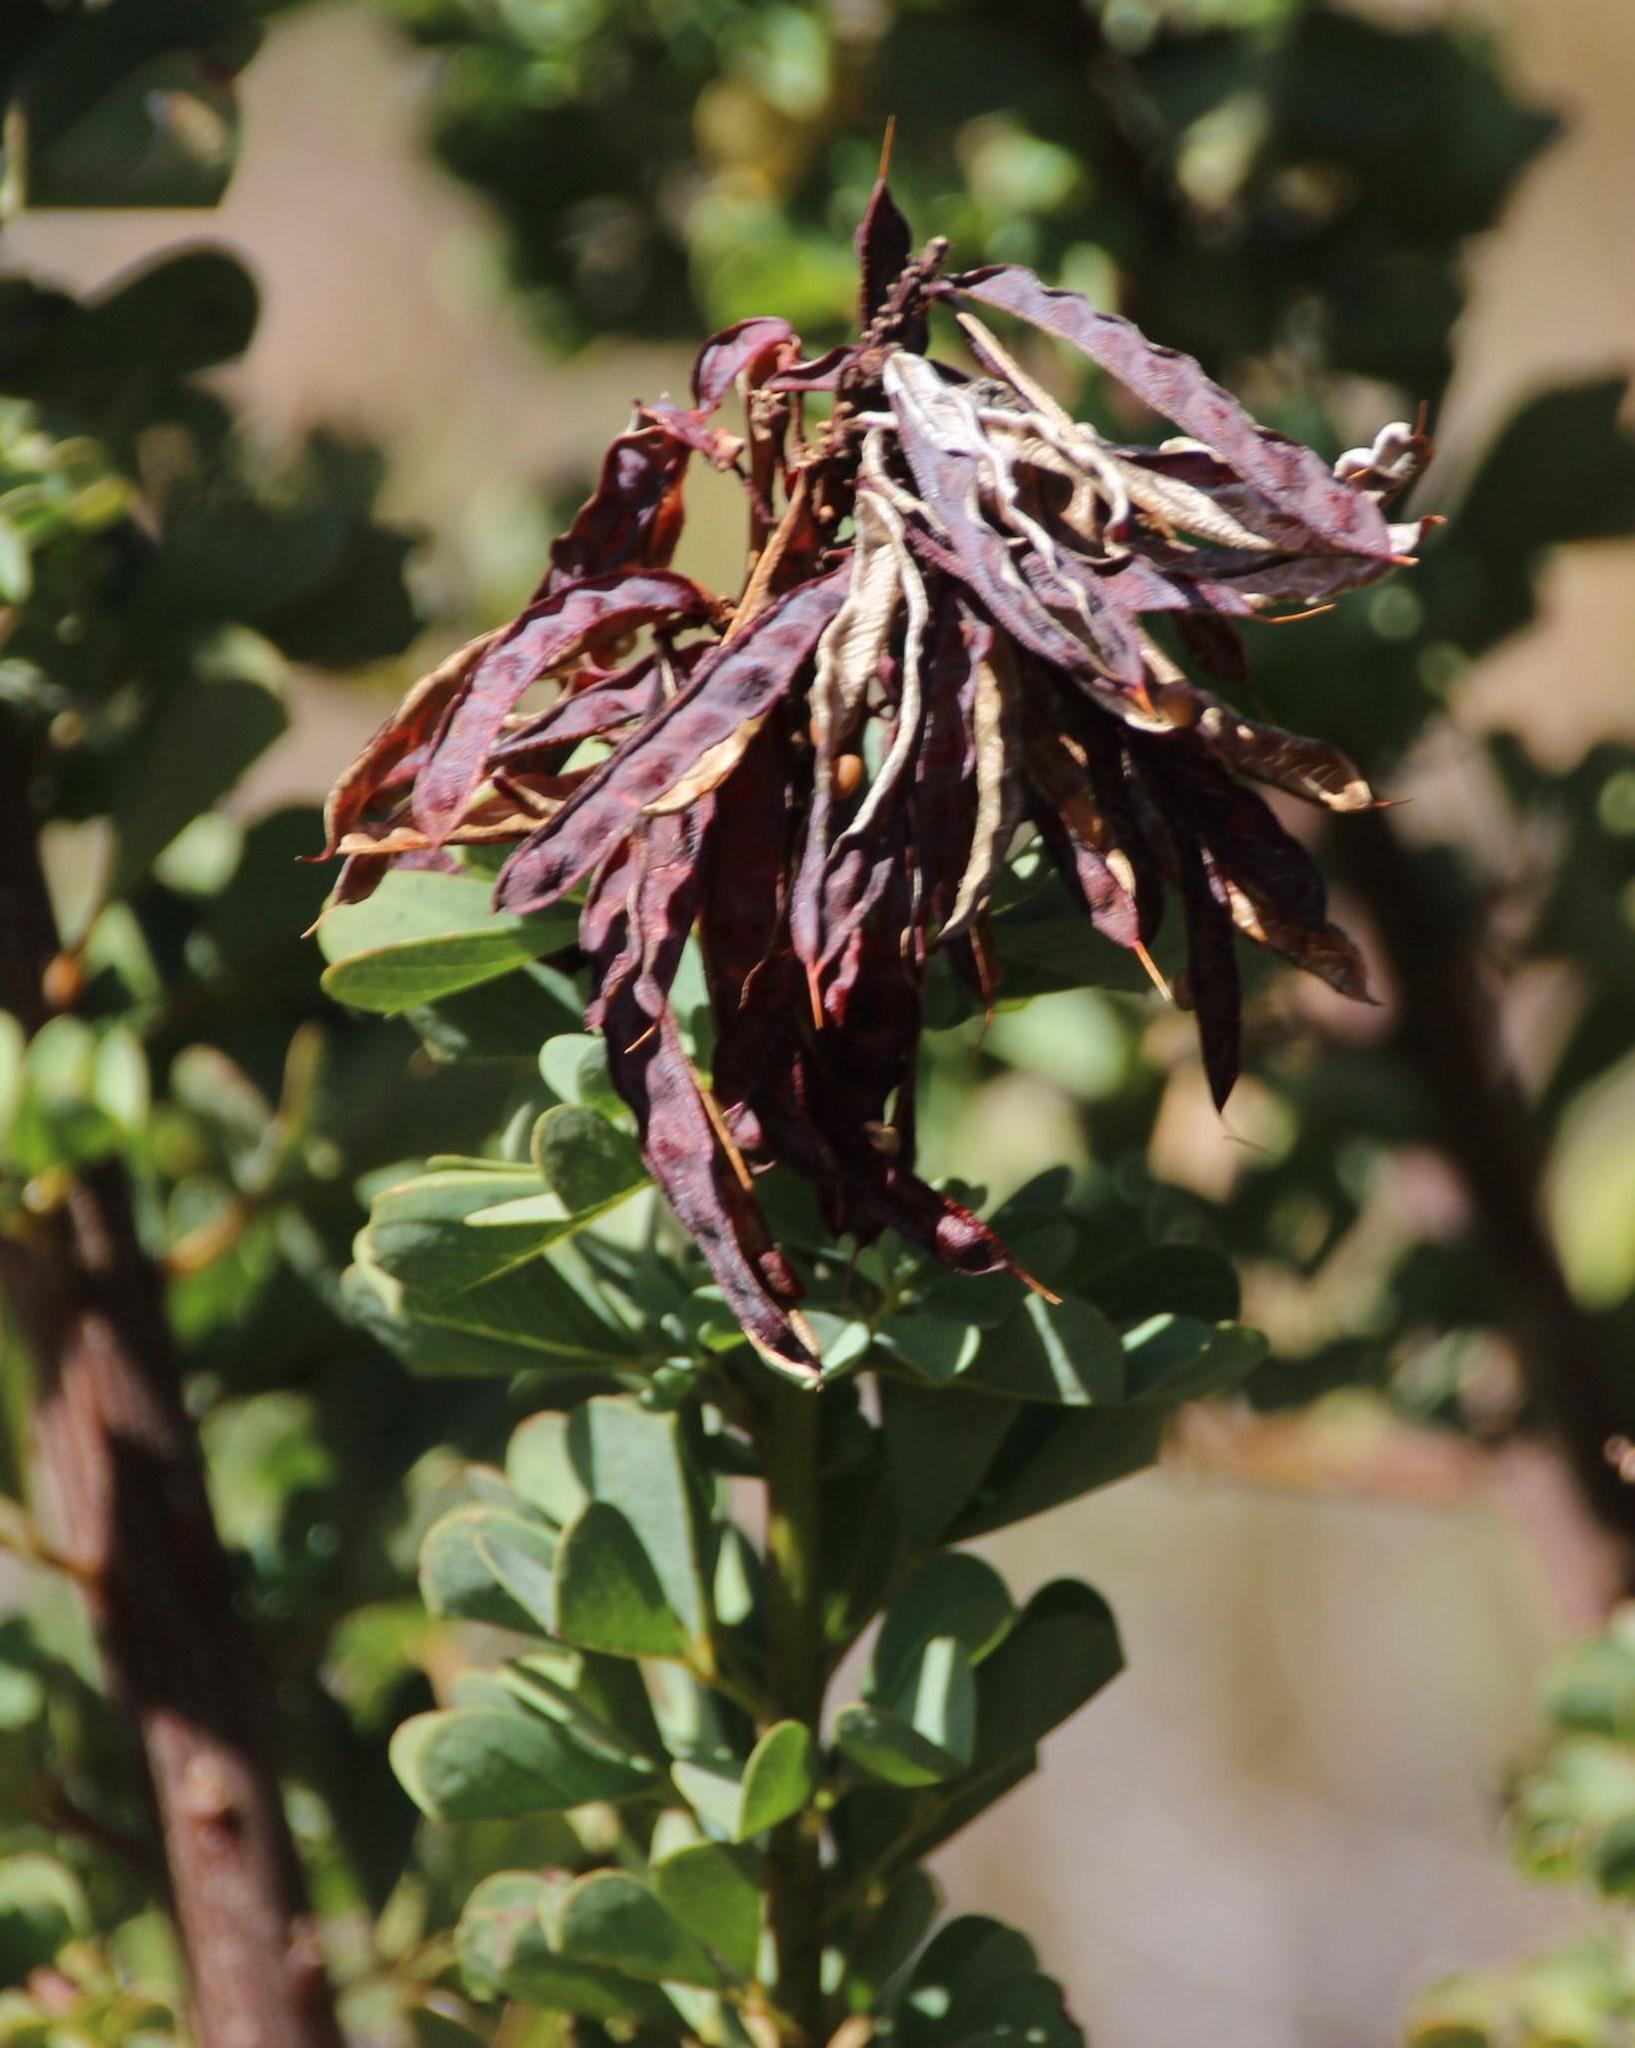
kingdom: Plantae
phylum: Tracheophyta
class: Magnoliopsida
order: Fabales
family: Fabaceae
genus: Hypocalyptus
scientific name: Hypocalyptus sophoroides
